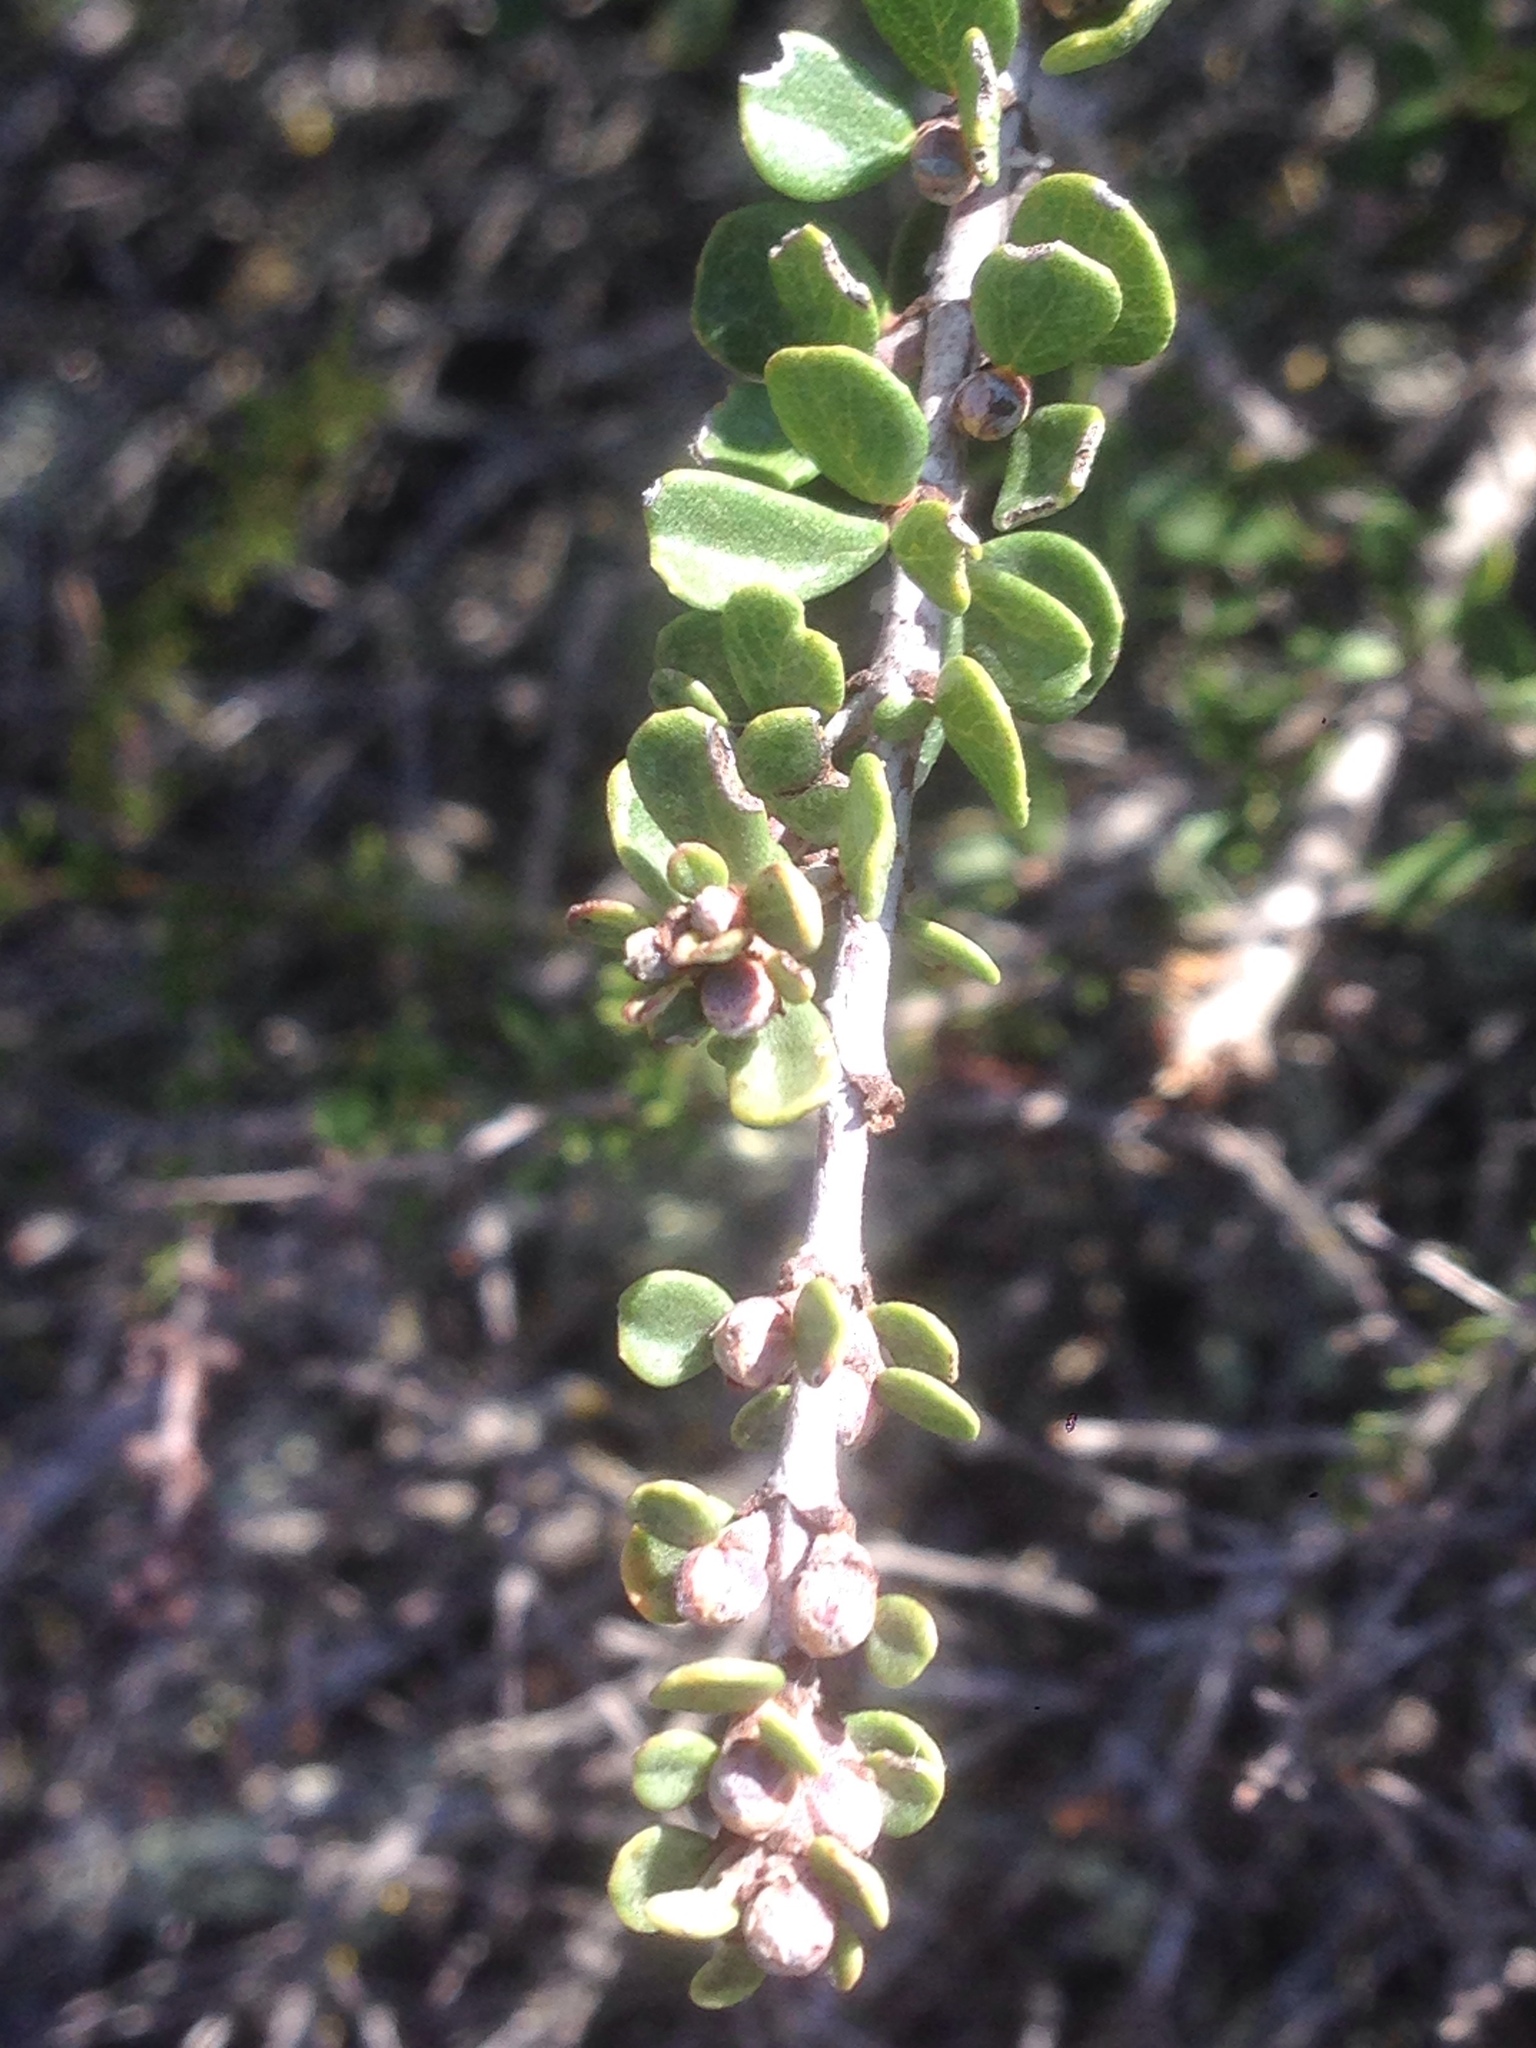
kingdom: Plantae
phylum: Tracheophyta
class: Magnoliopsida
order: Rosales
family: Rhamnaceae
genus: Ceanothus
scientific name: Ceanothus cuneatus
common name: Cuneate ceanothus
